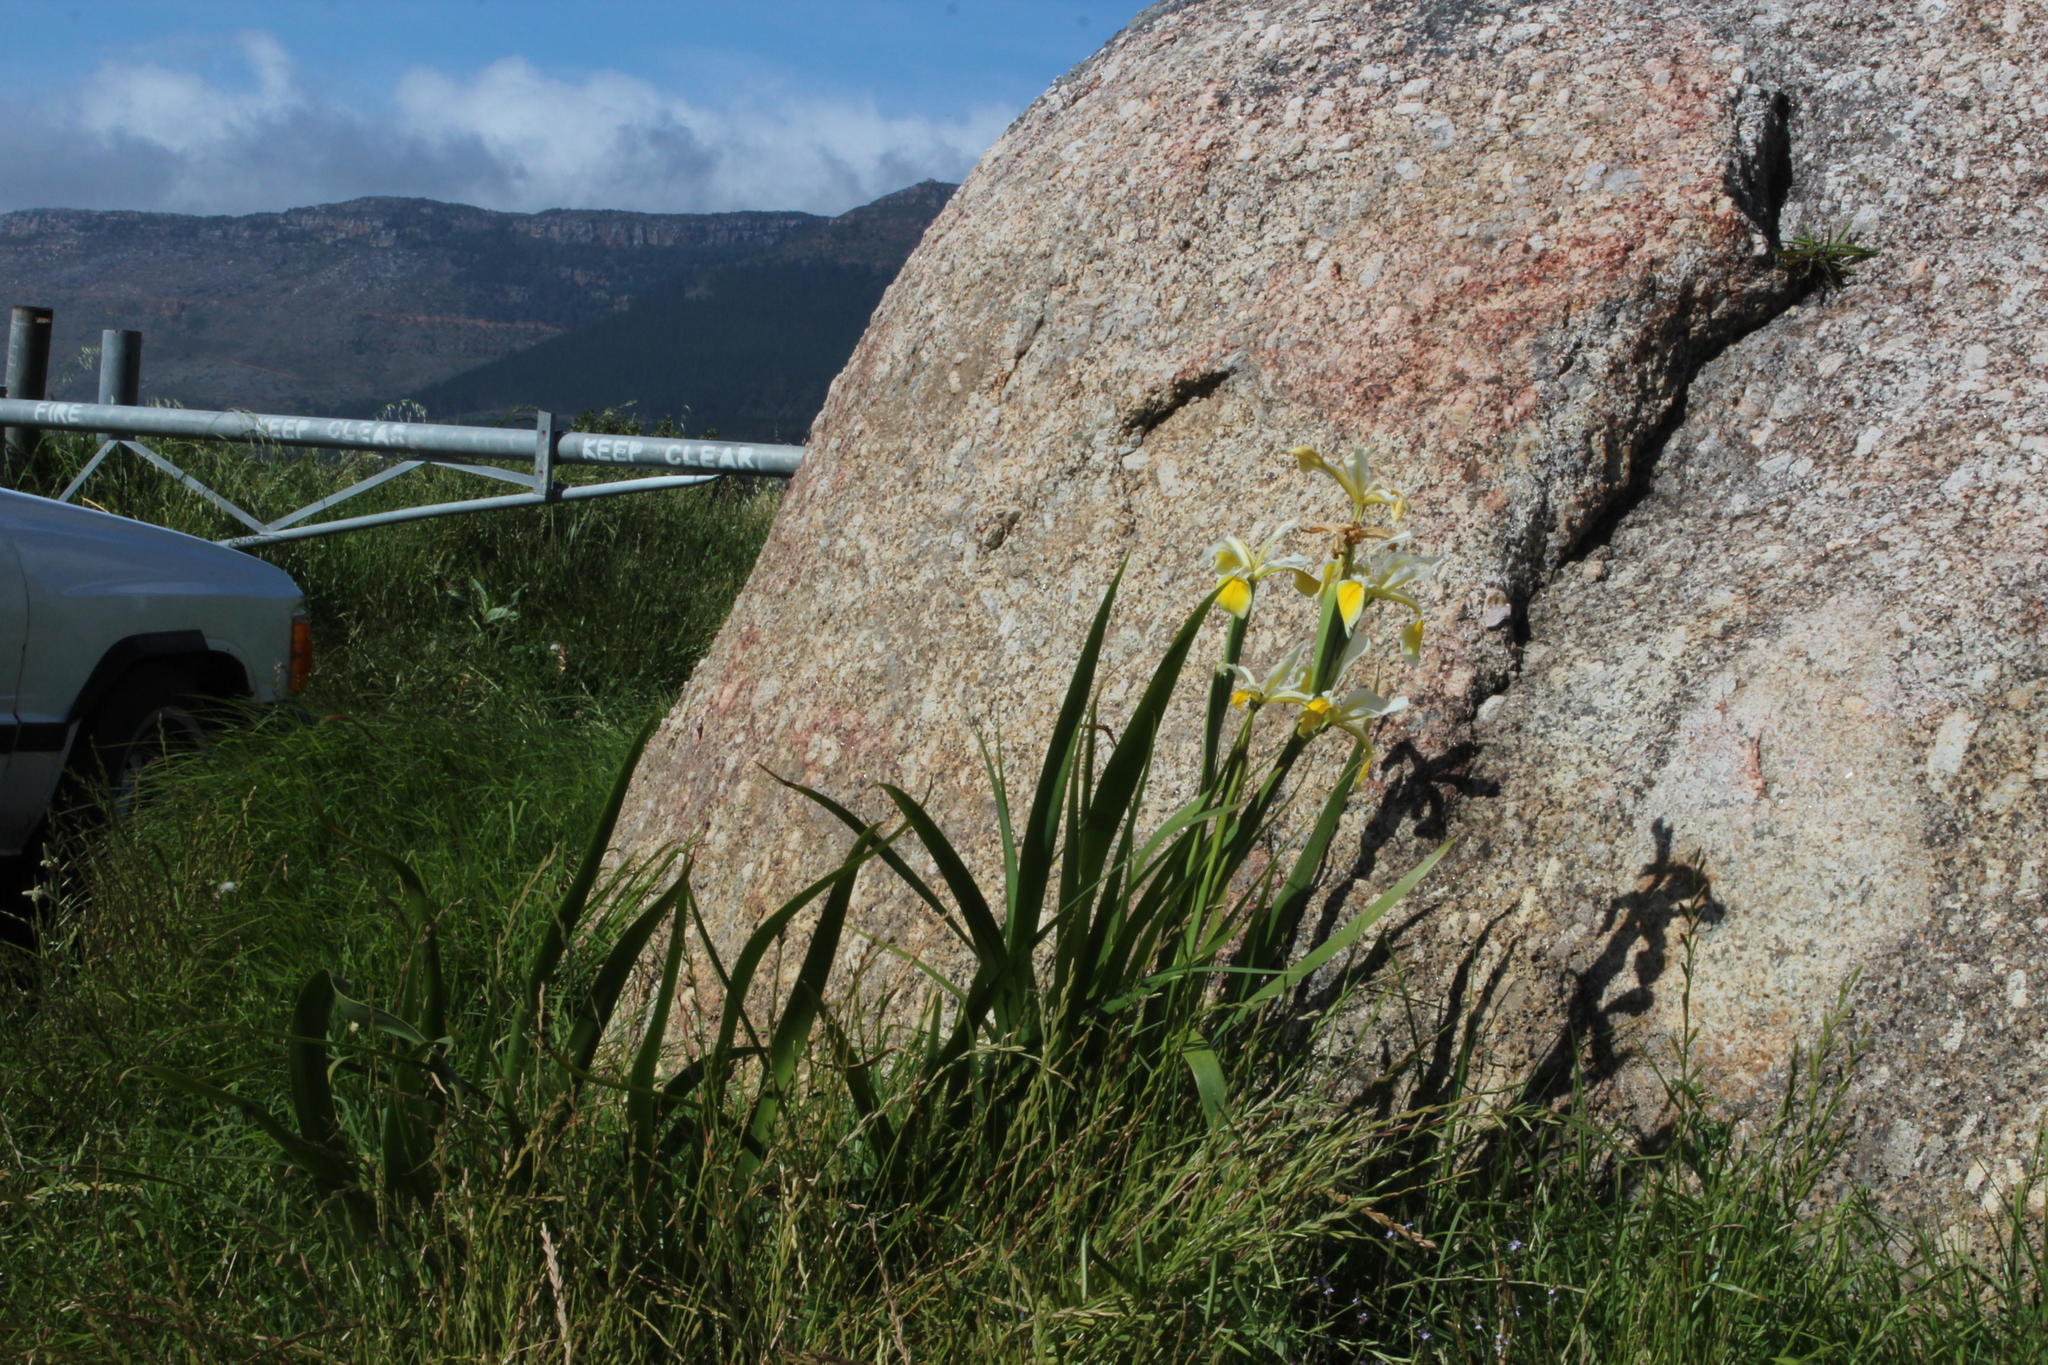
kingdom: Plantae
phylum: Tracheophyta
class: Liliopsida
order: Asparagales
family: Iridaceae
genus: Iris
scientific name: Iris orientalis
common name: Turkish iris
